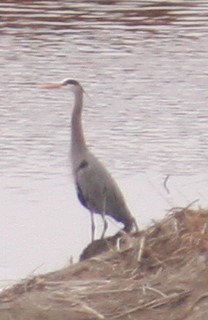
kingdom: Animalia
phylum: Chordata
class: Aves
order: Pelecaniformes
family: Ardeidae
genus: Ardea
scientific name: Ardea herodias
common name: Great blue heron
